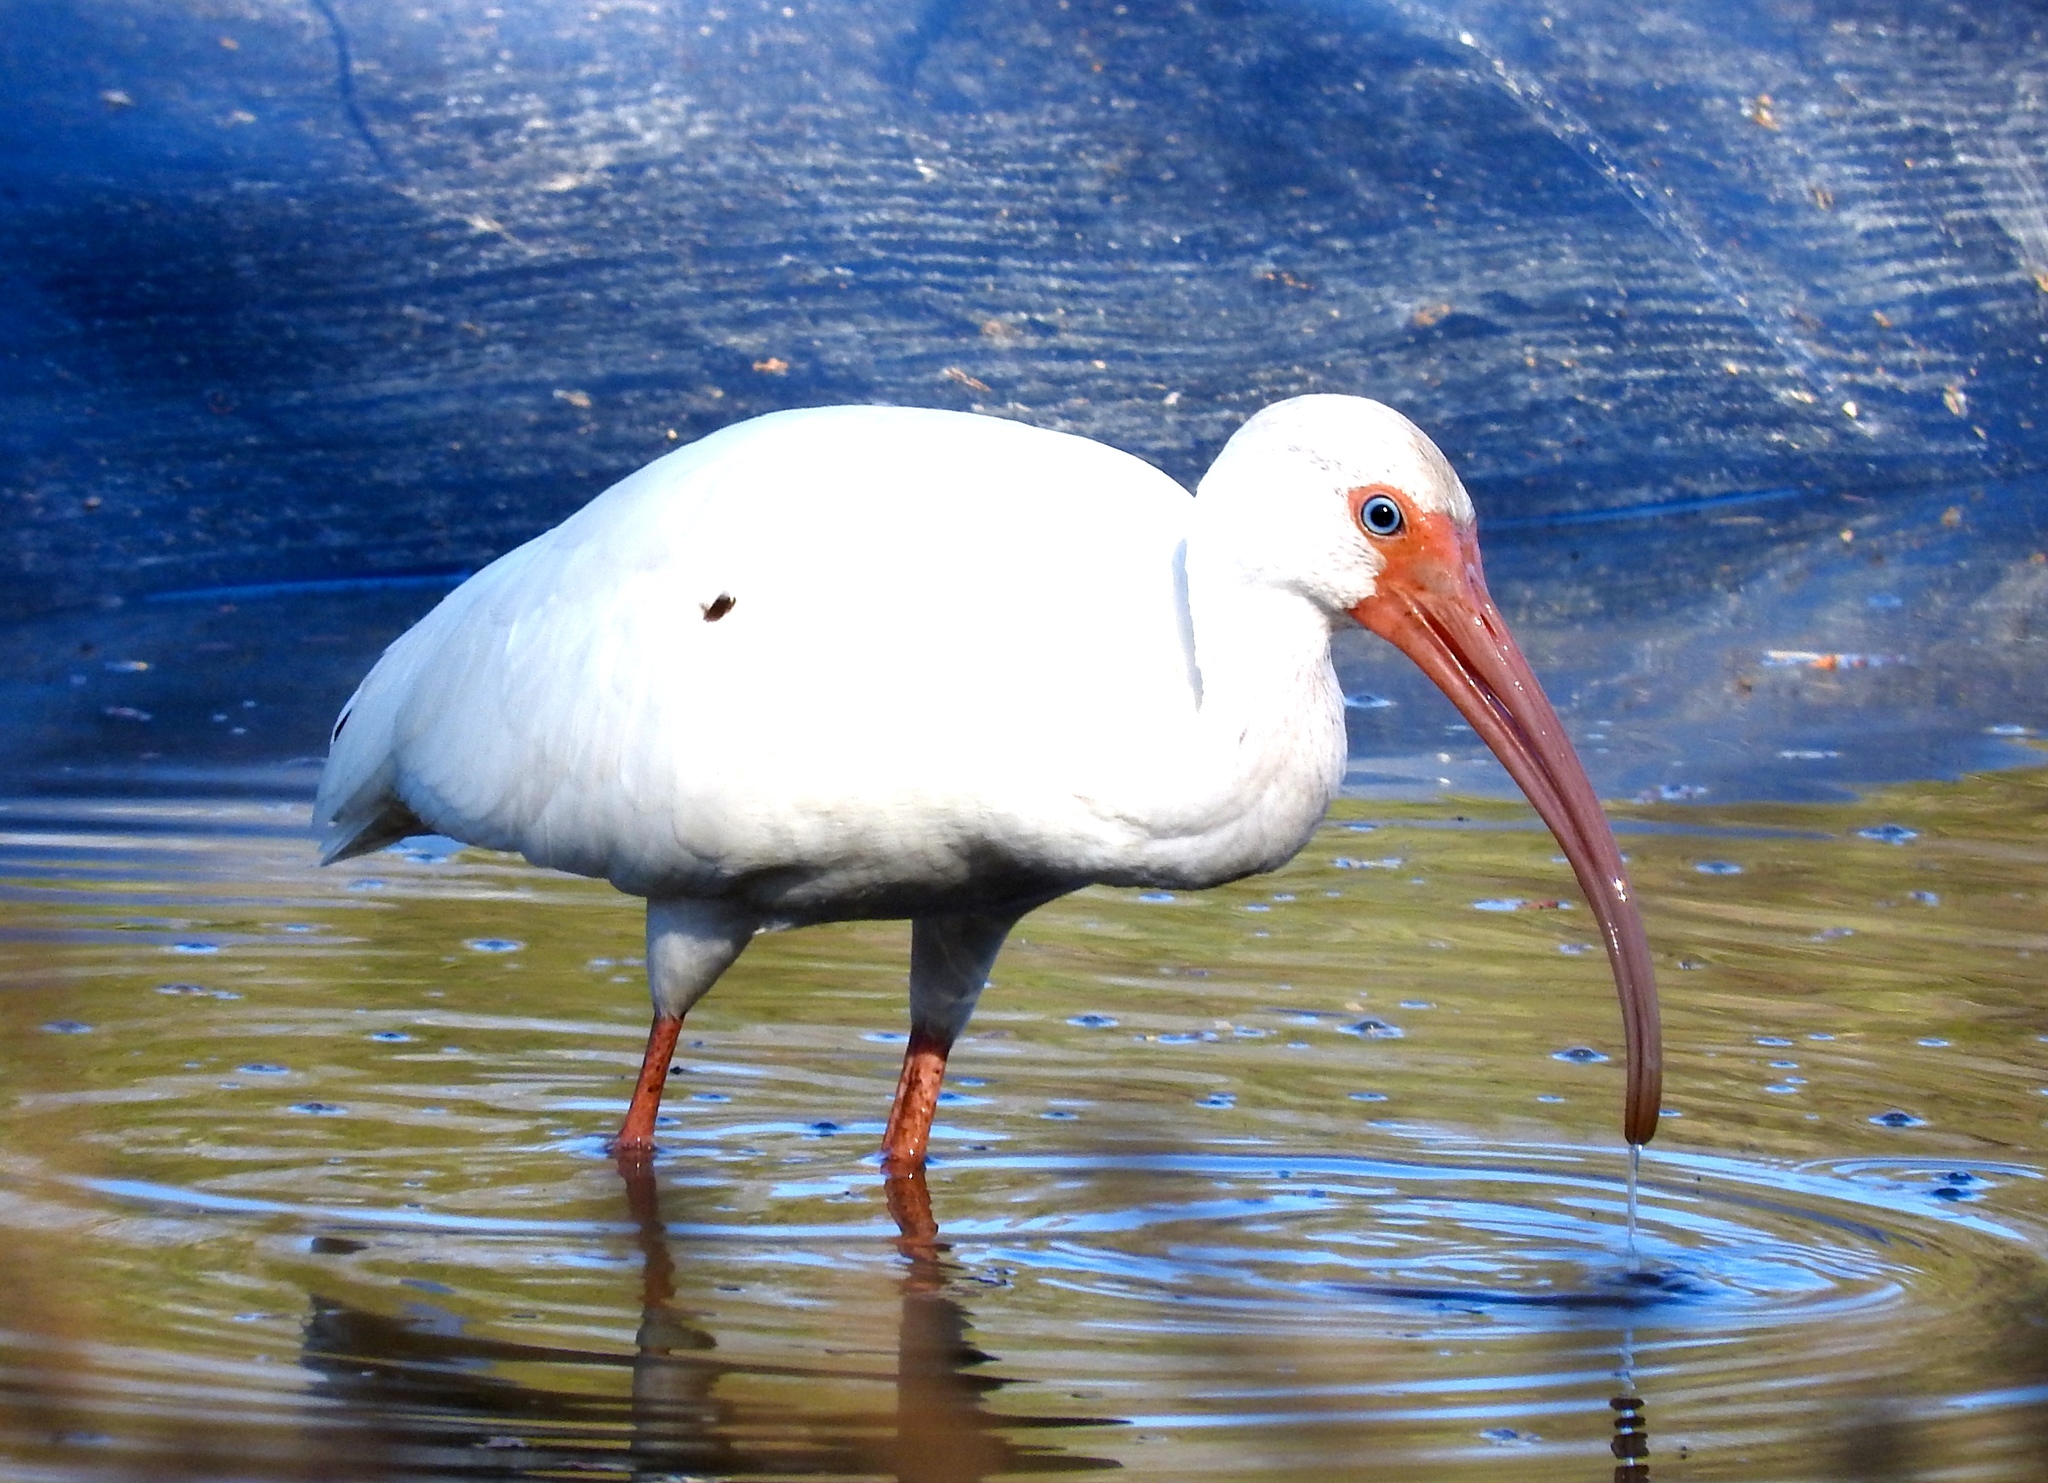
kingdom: Animalia
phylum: Chordata
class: Aves
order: Pelecaniformes
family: Threskiornithidae
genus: Eudocimus
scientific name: Eudocimus albus
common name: White ibis
